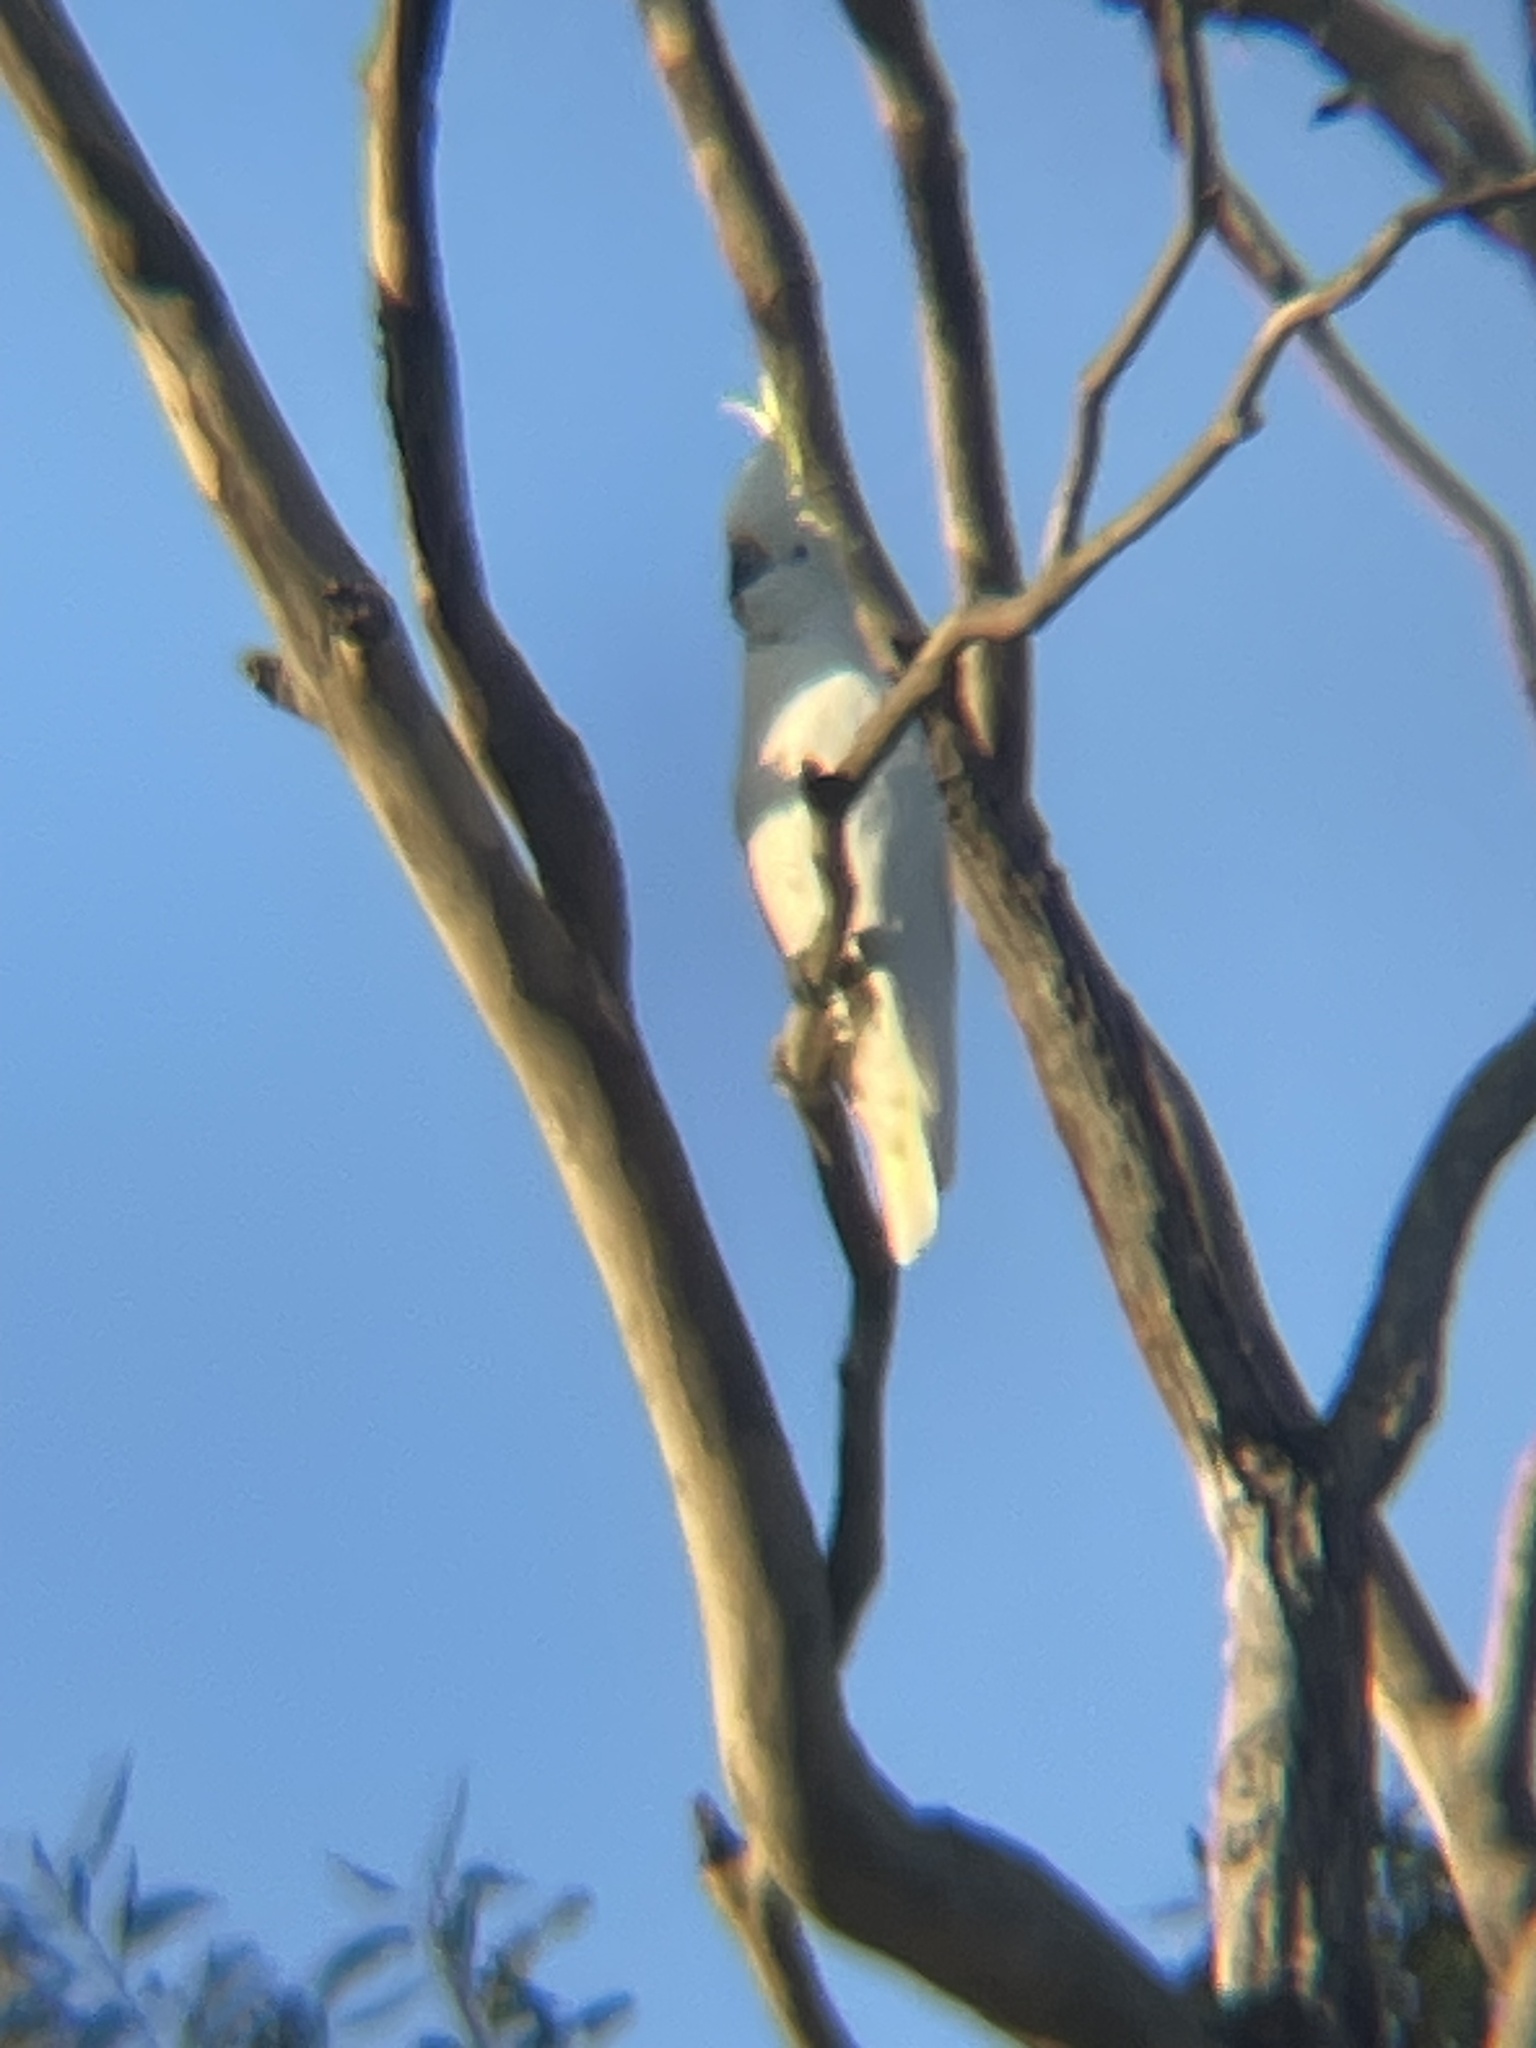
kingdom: Animalia
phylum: Chordata
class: Aves
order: Psittaciformes
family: Psittacidae
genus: Cacatua
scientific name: Cacatua galerita
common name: Sulphur-crested cockatoo
